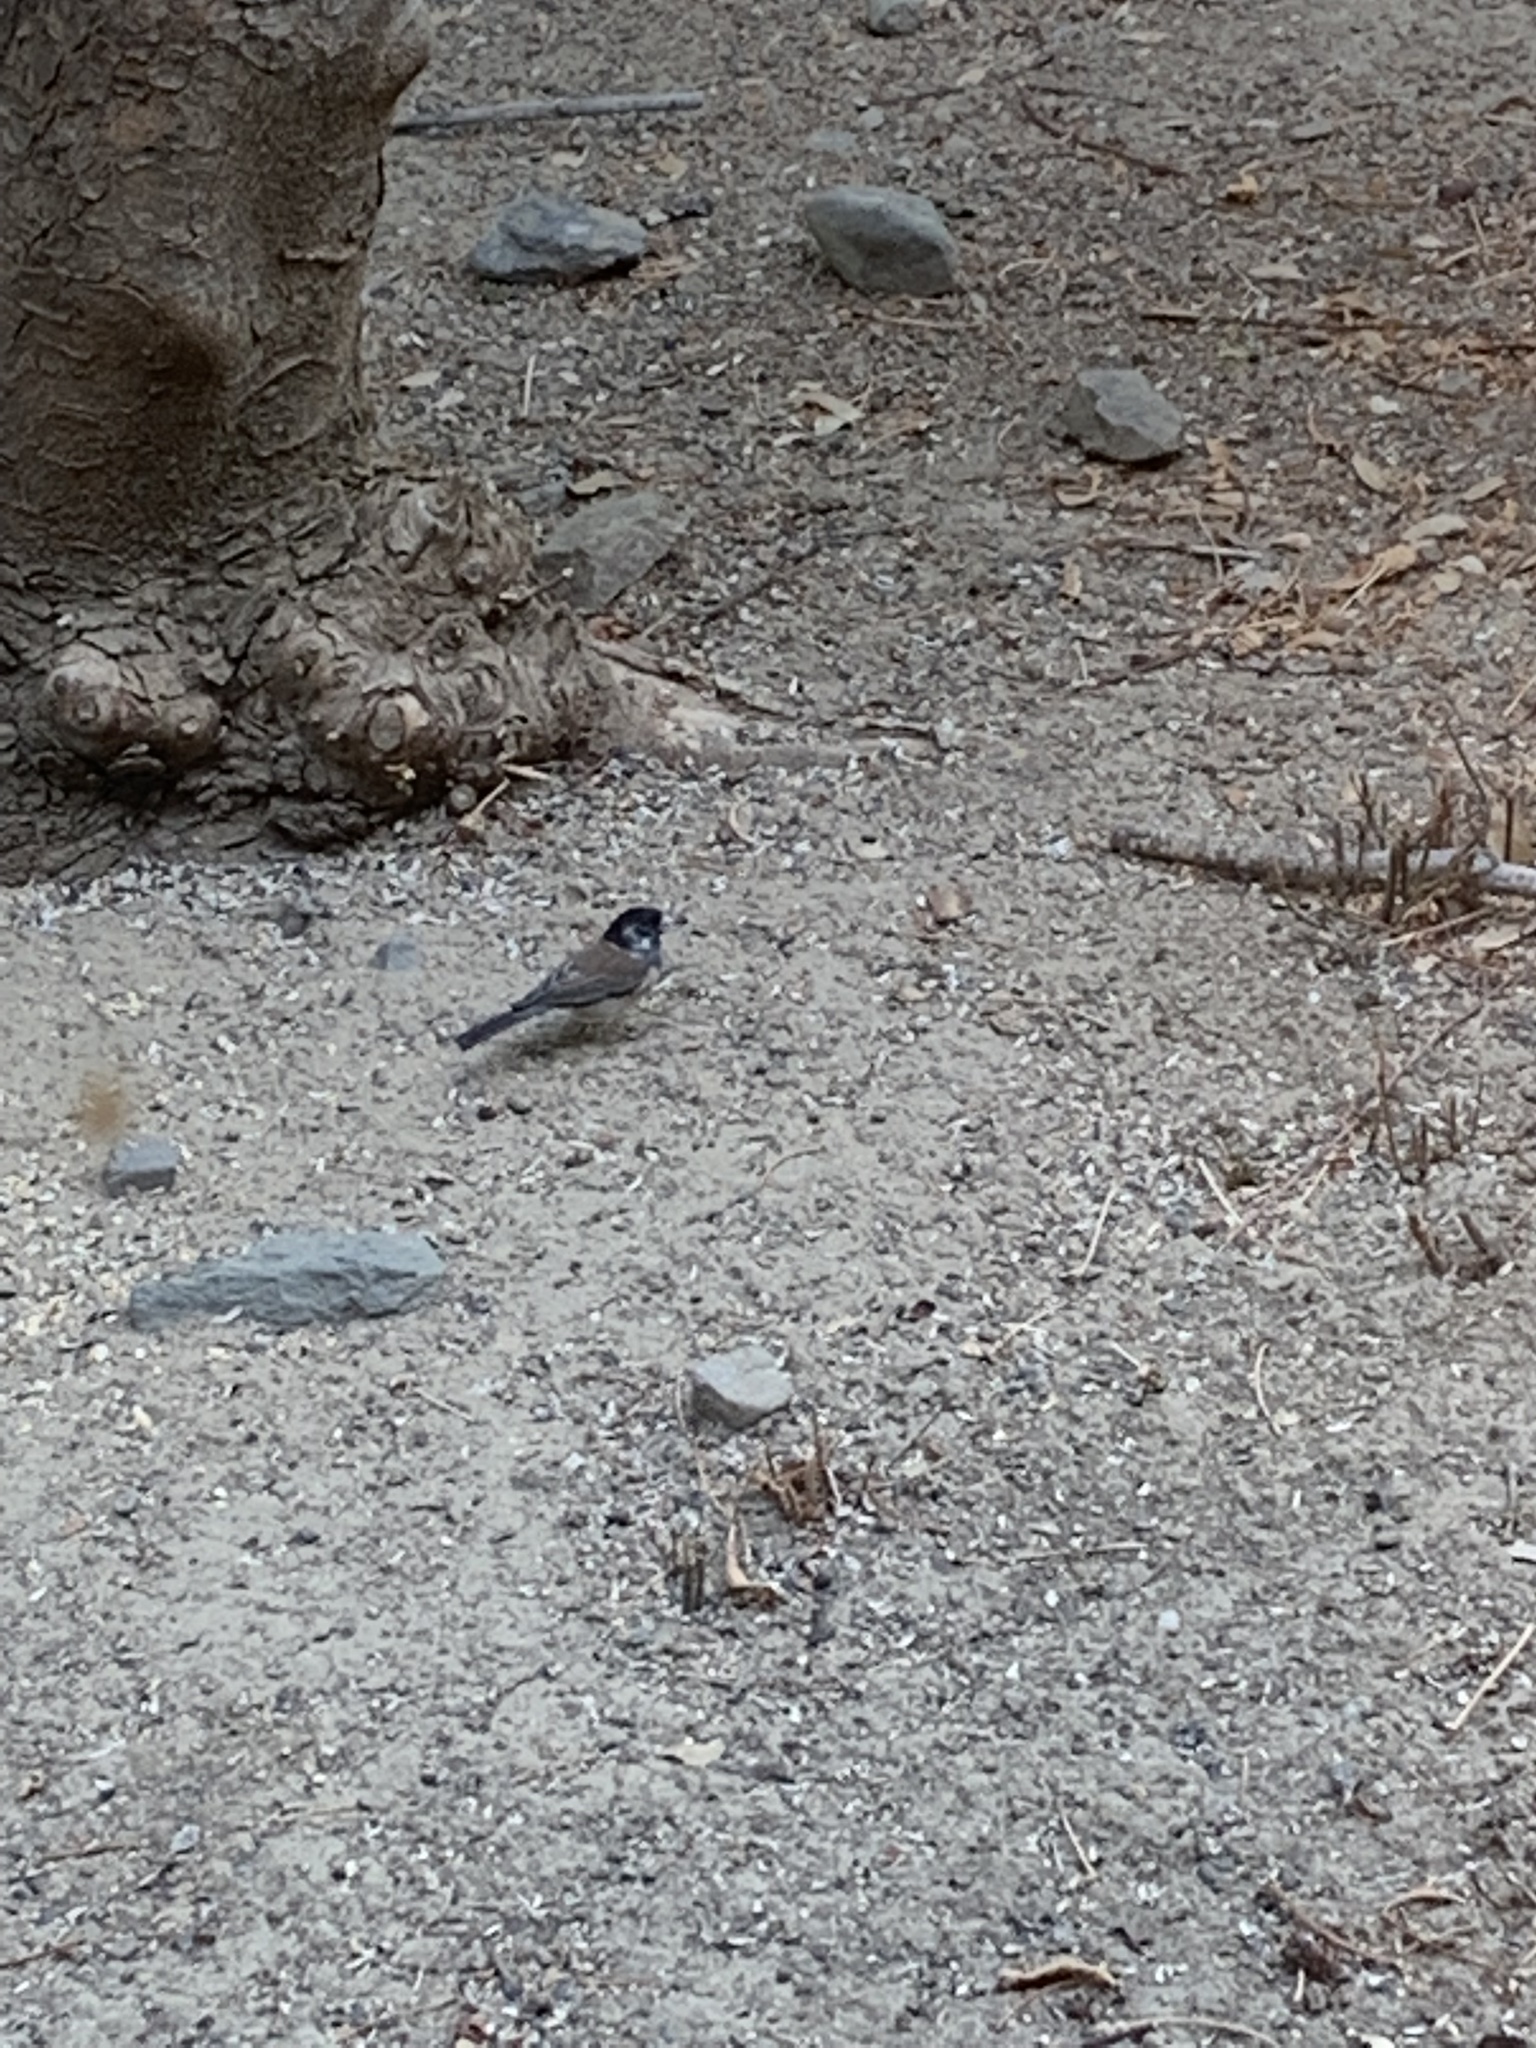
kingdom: Animalia
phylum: Chordata
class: Aves
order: Passeriformes
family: Passerellidae
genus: Junco
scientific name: Junco hyemalis
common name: Dark-eyed junco
